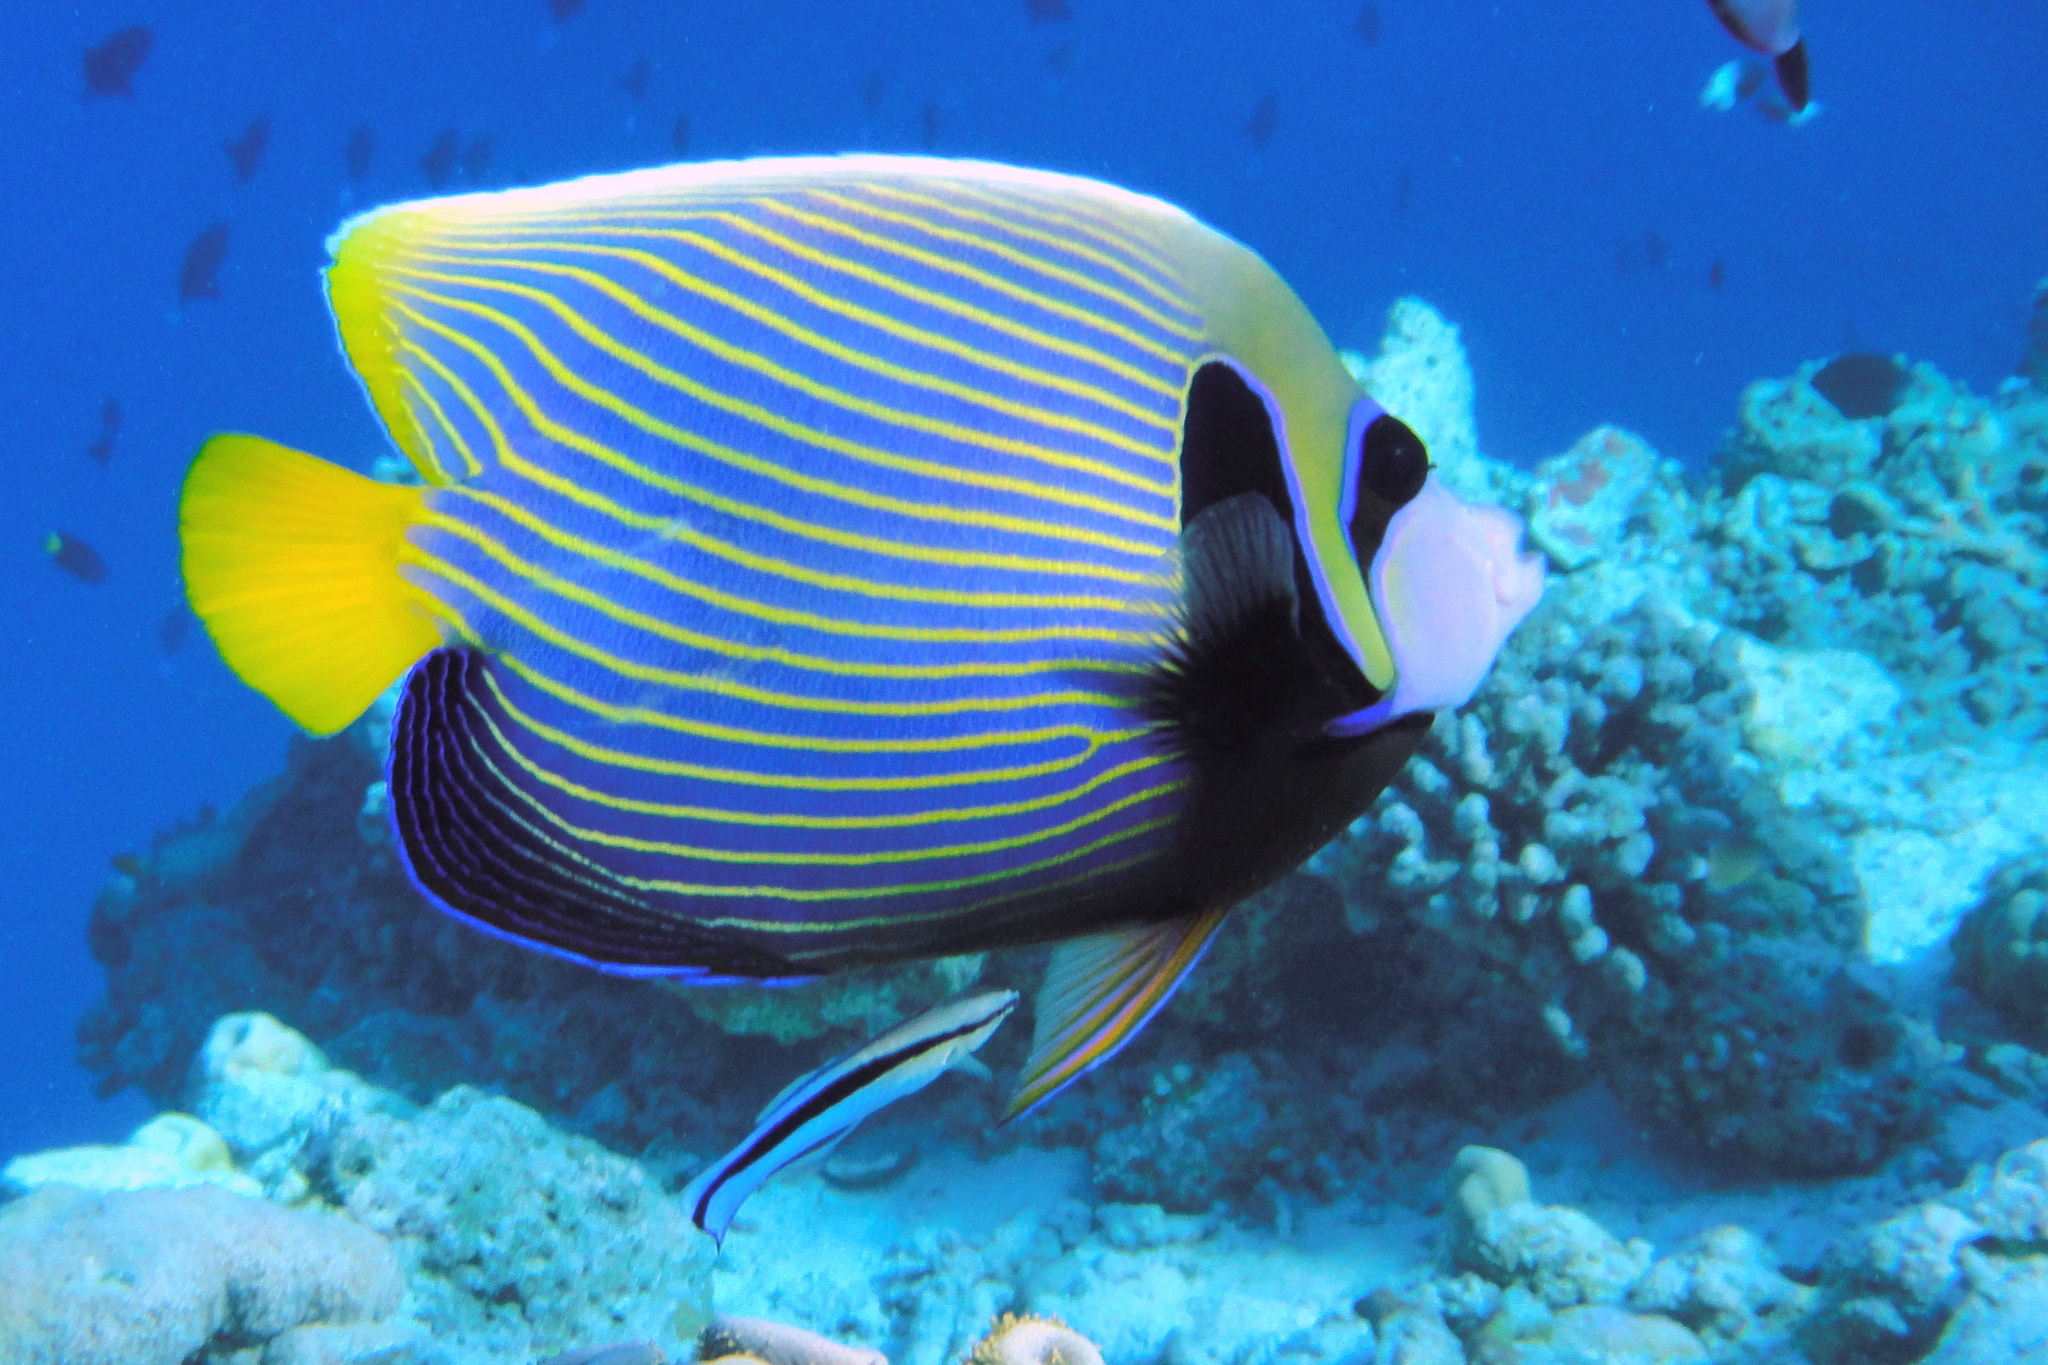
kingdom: Animalia
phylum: Chordata
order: Perciformes
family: Pomacanthidae
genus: Pomacanthus
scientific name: Pomacanthus imperator
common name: Emperor angelfish
